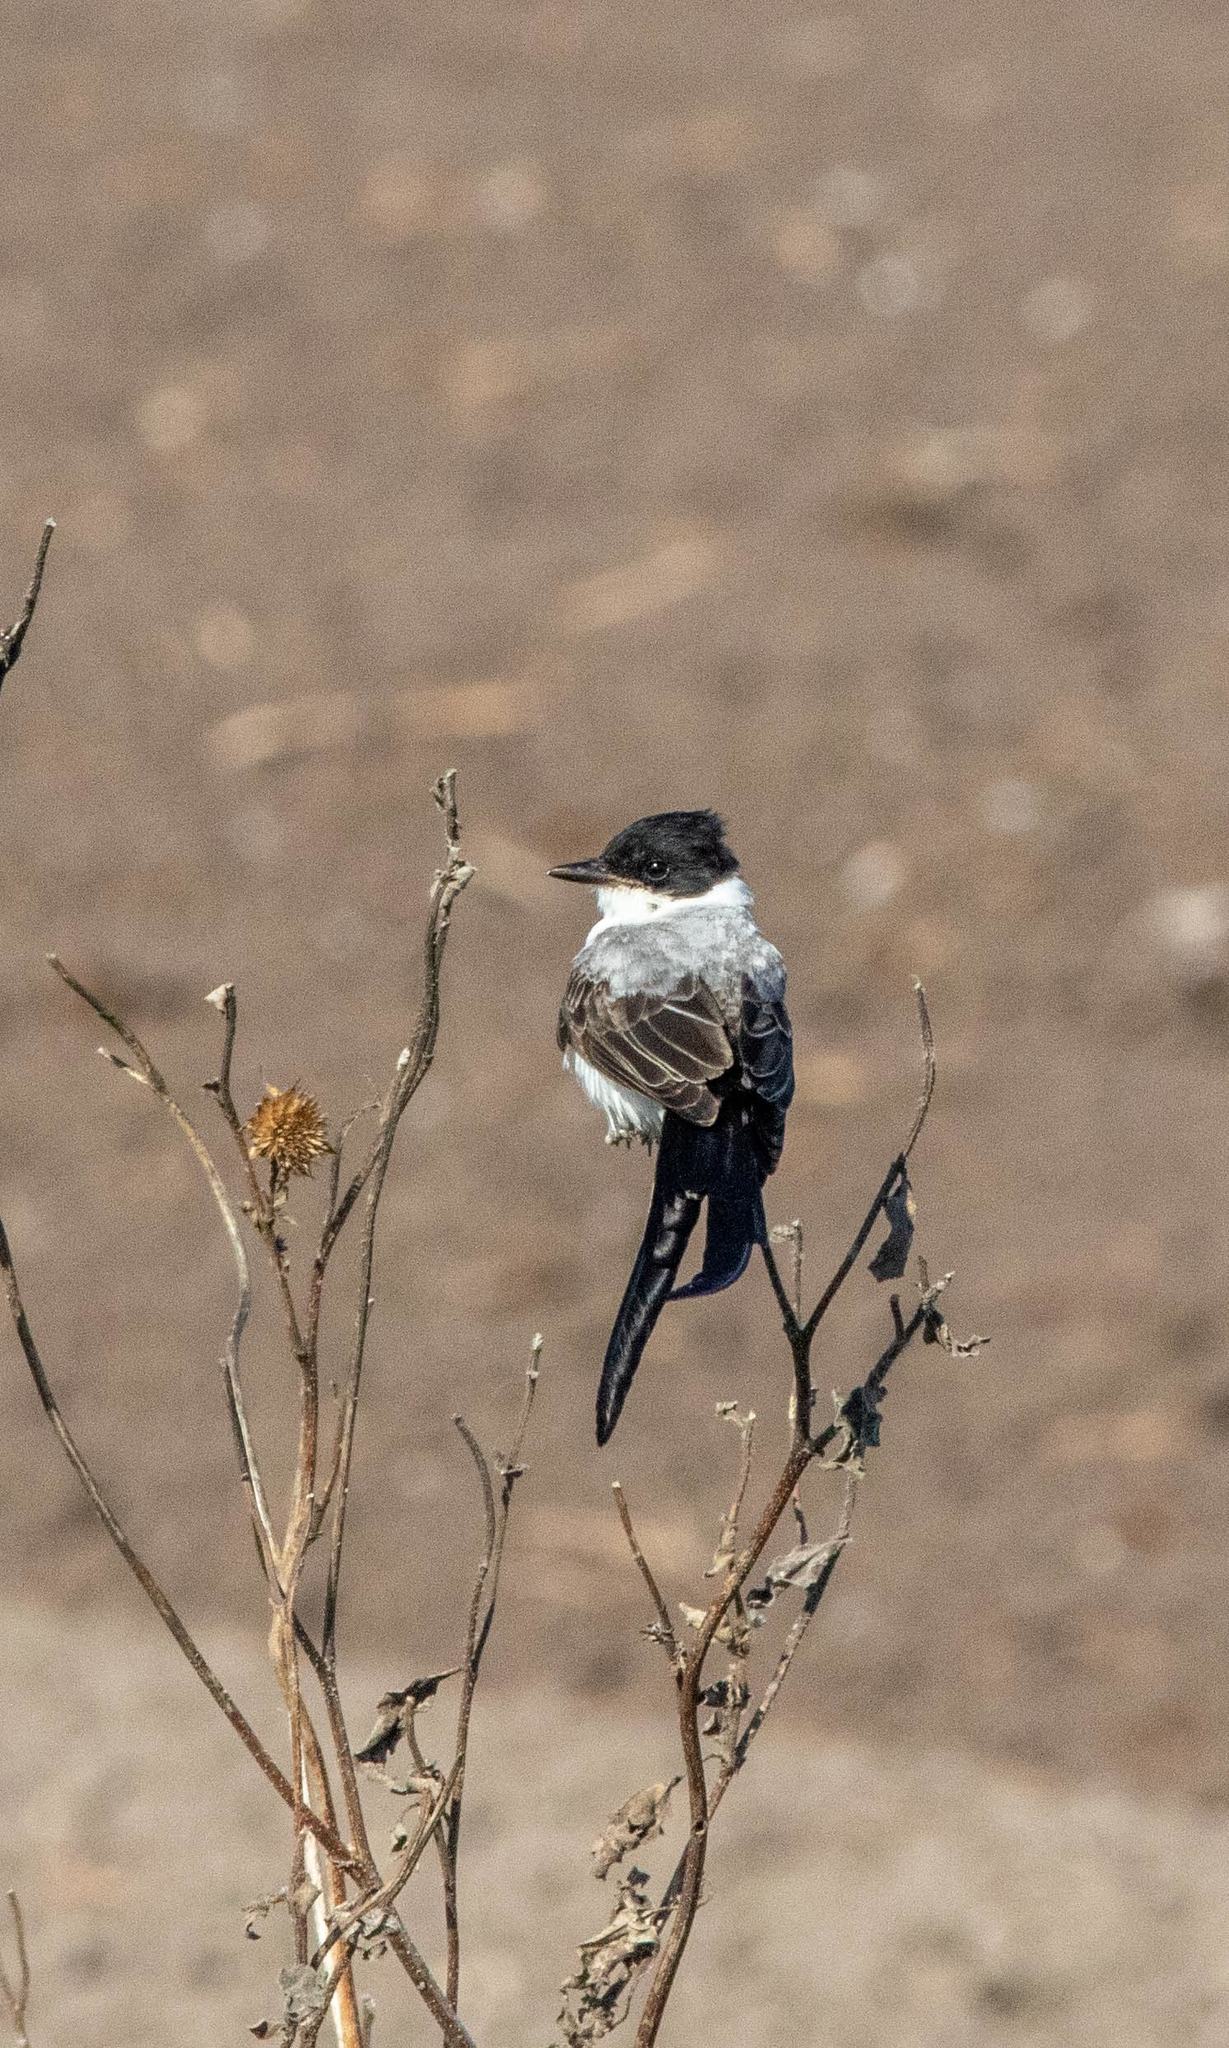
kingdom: Animalia
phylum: Chordata
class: Aves
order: Passeriformes
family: Tyrannidae
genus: Tyrannus
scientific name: Tyrannus savana
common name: Fork-tailed flycatcher
